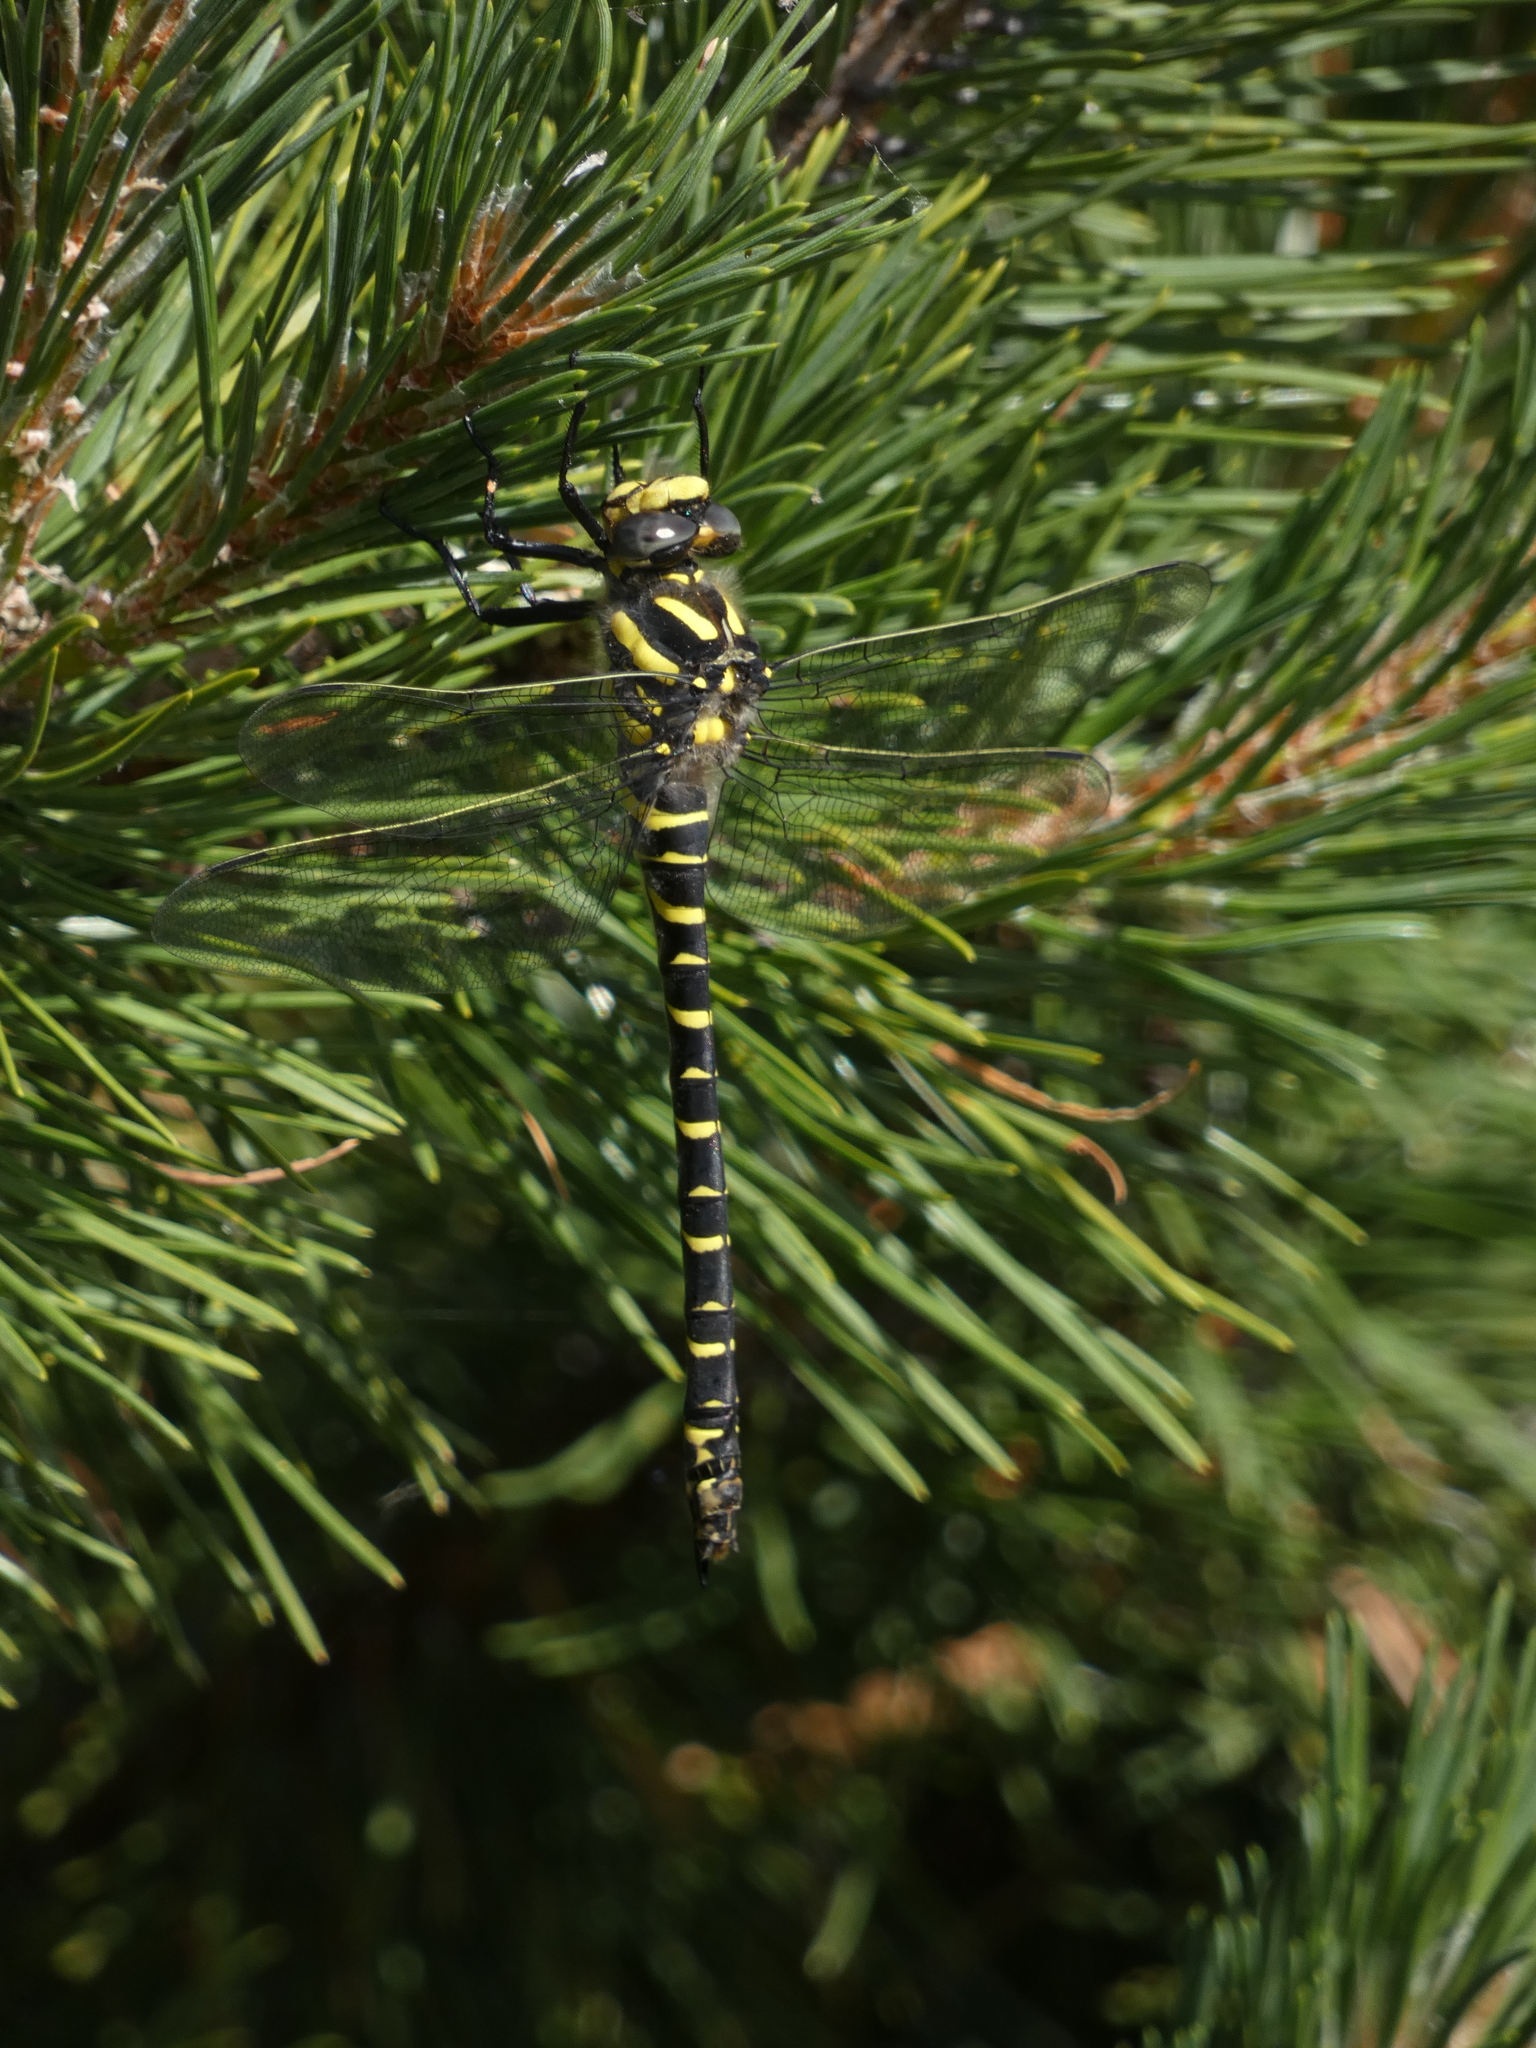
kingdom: Animalia
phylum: Arthropoda
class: Insecta
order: Odonata
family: Cordulegastridae
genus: Cordulegaster
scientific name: Cordulegaster boltonii
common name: Golden-ringed dragonfly
